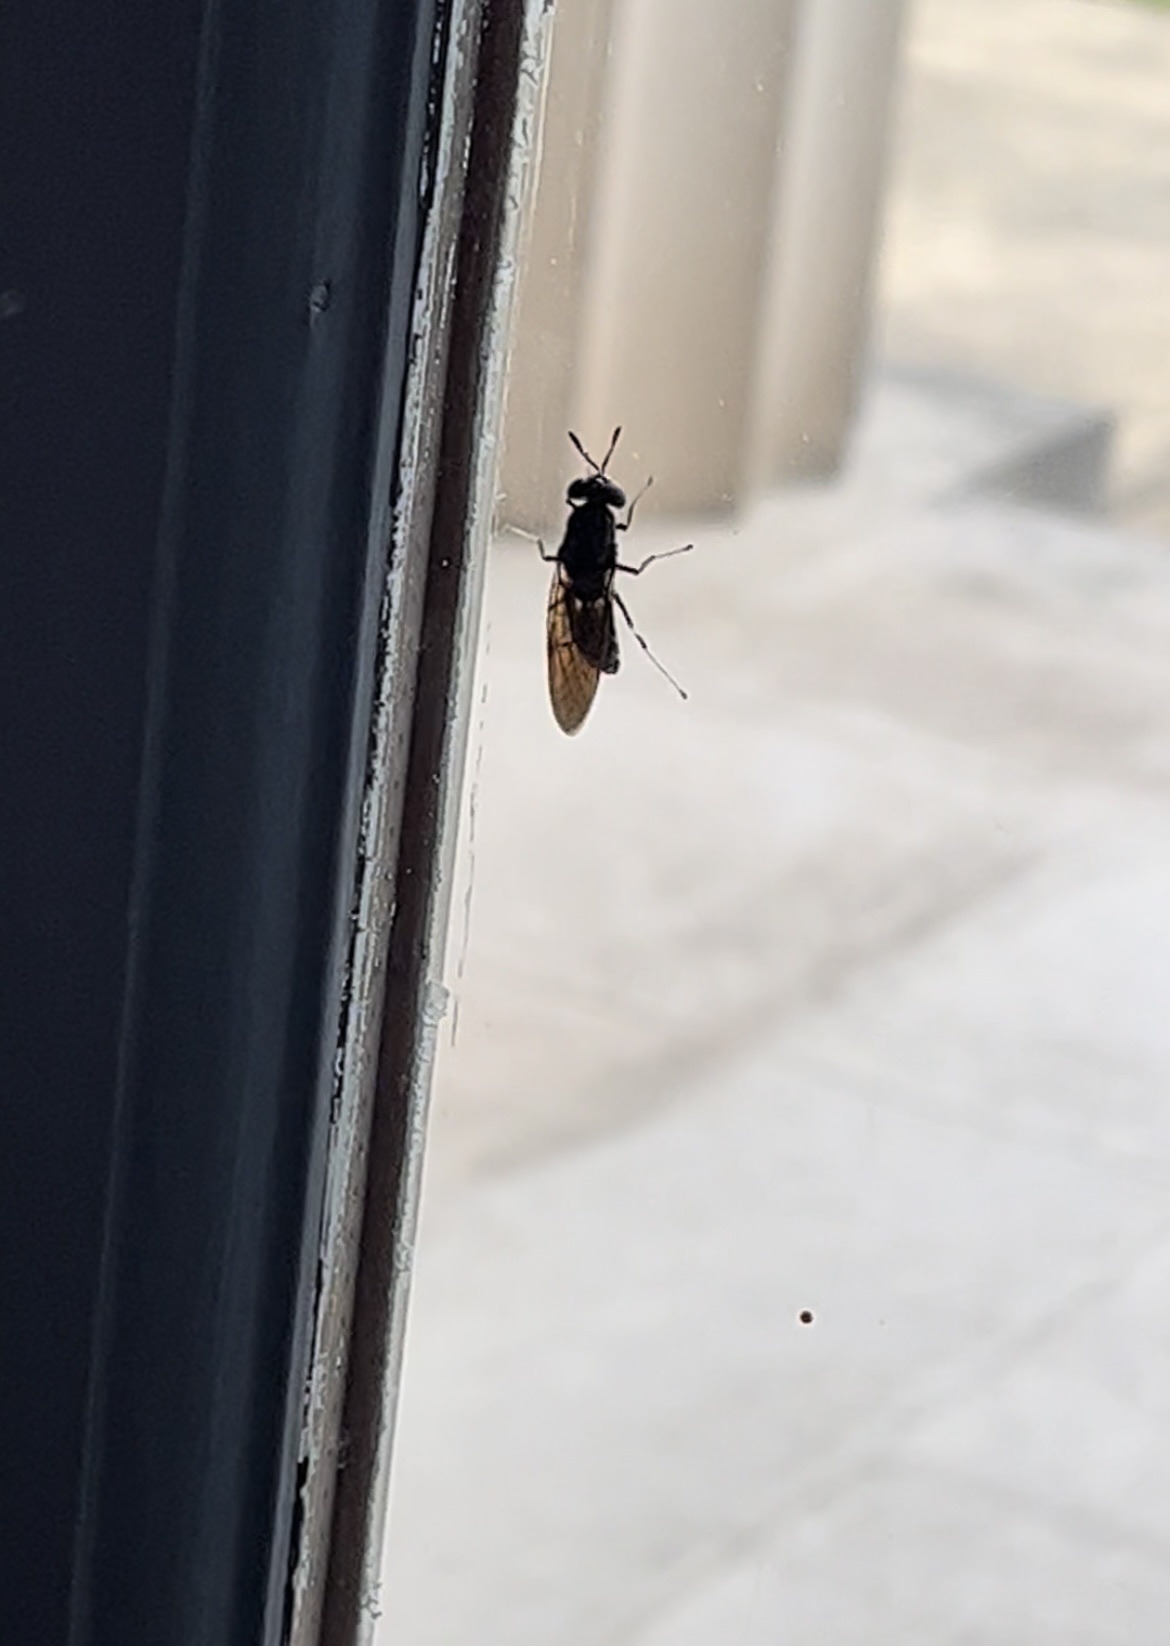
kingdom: Animalia
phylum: Arthropoda
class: Insecta
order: Diptera
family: Stratiomyidae
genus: Hermetia
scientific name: Hermetia illucens
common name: Black soldier fly
